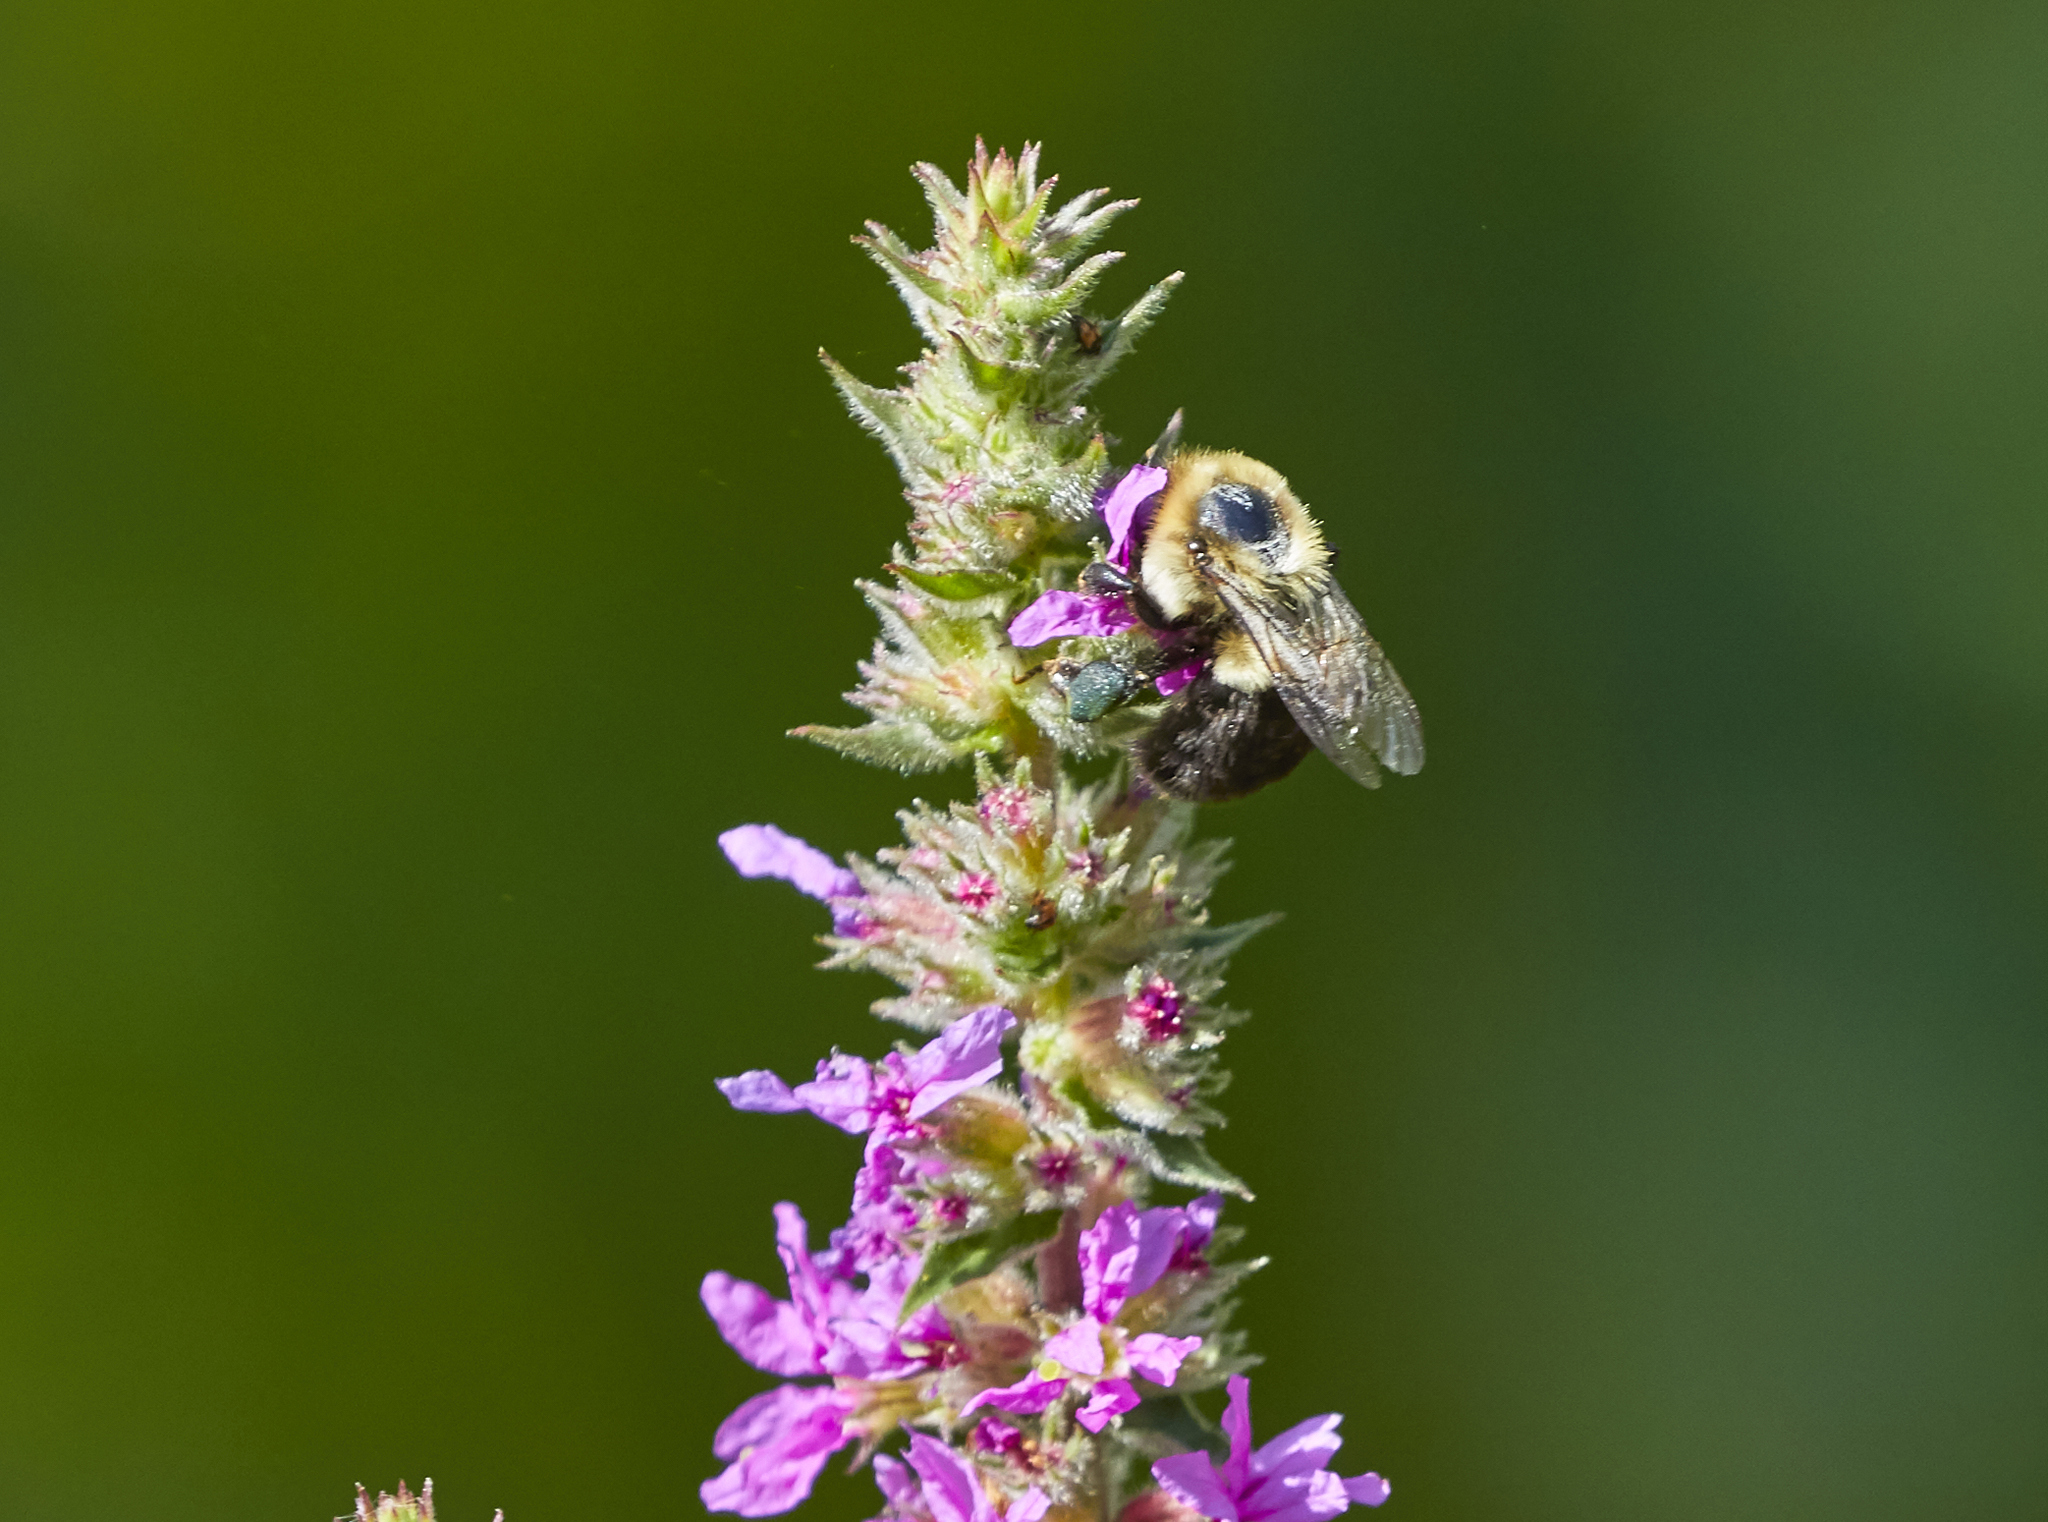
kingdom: Animalia
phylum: Arthropoda
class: Insecta
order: Hymenoptera
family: Apidae
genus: Bombus
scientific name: Bombus impatiens
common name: Common eastern bumble bee
